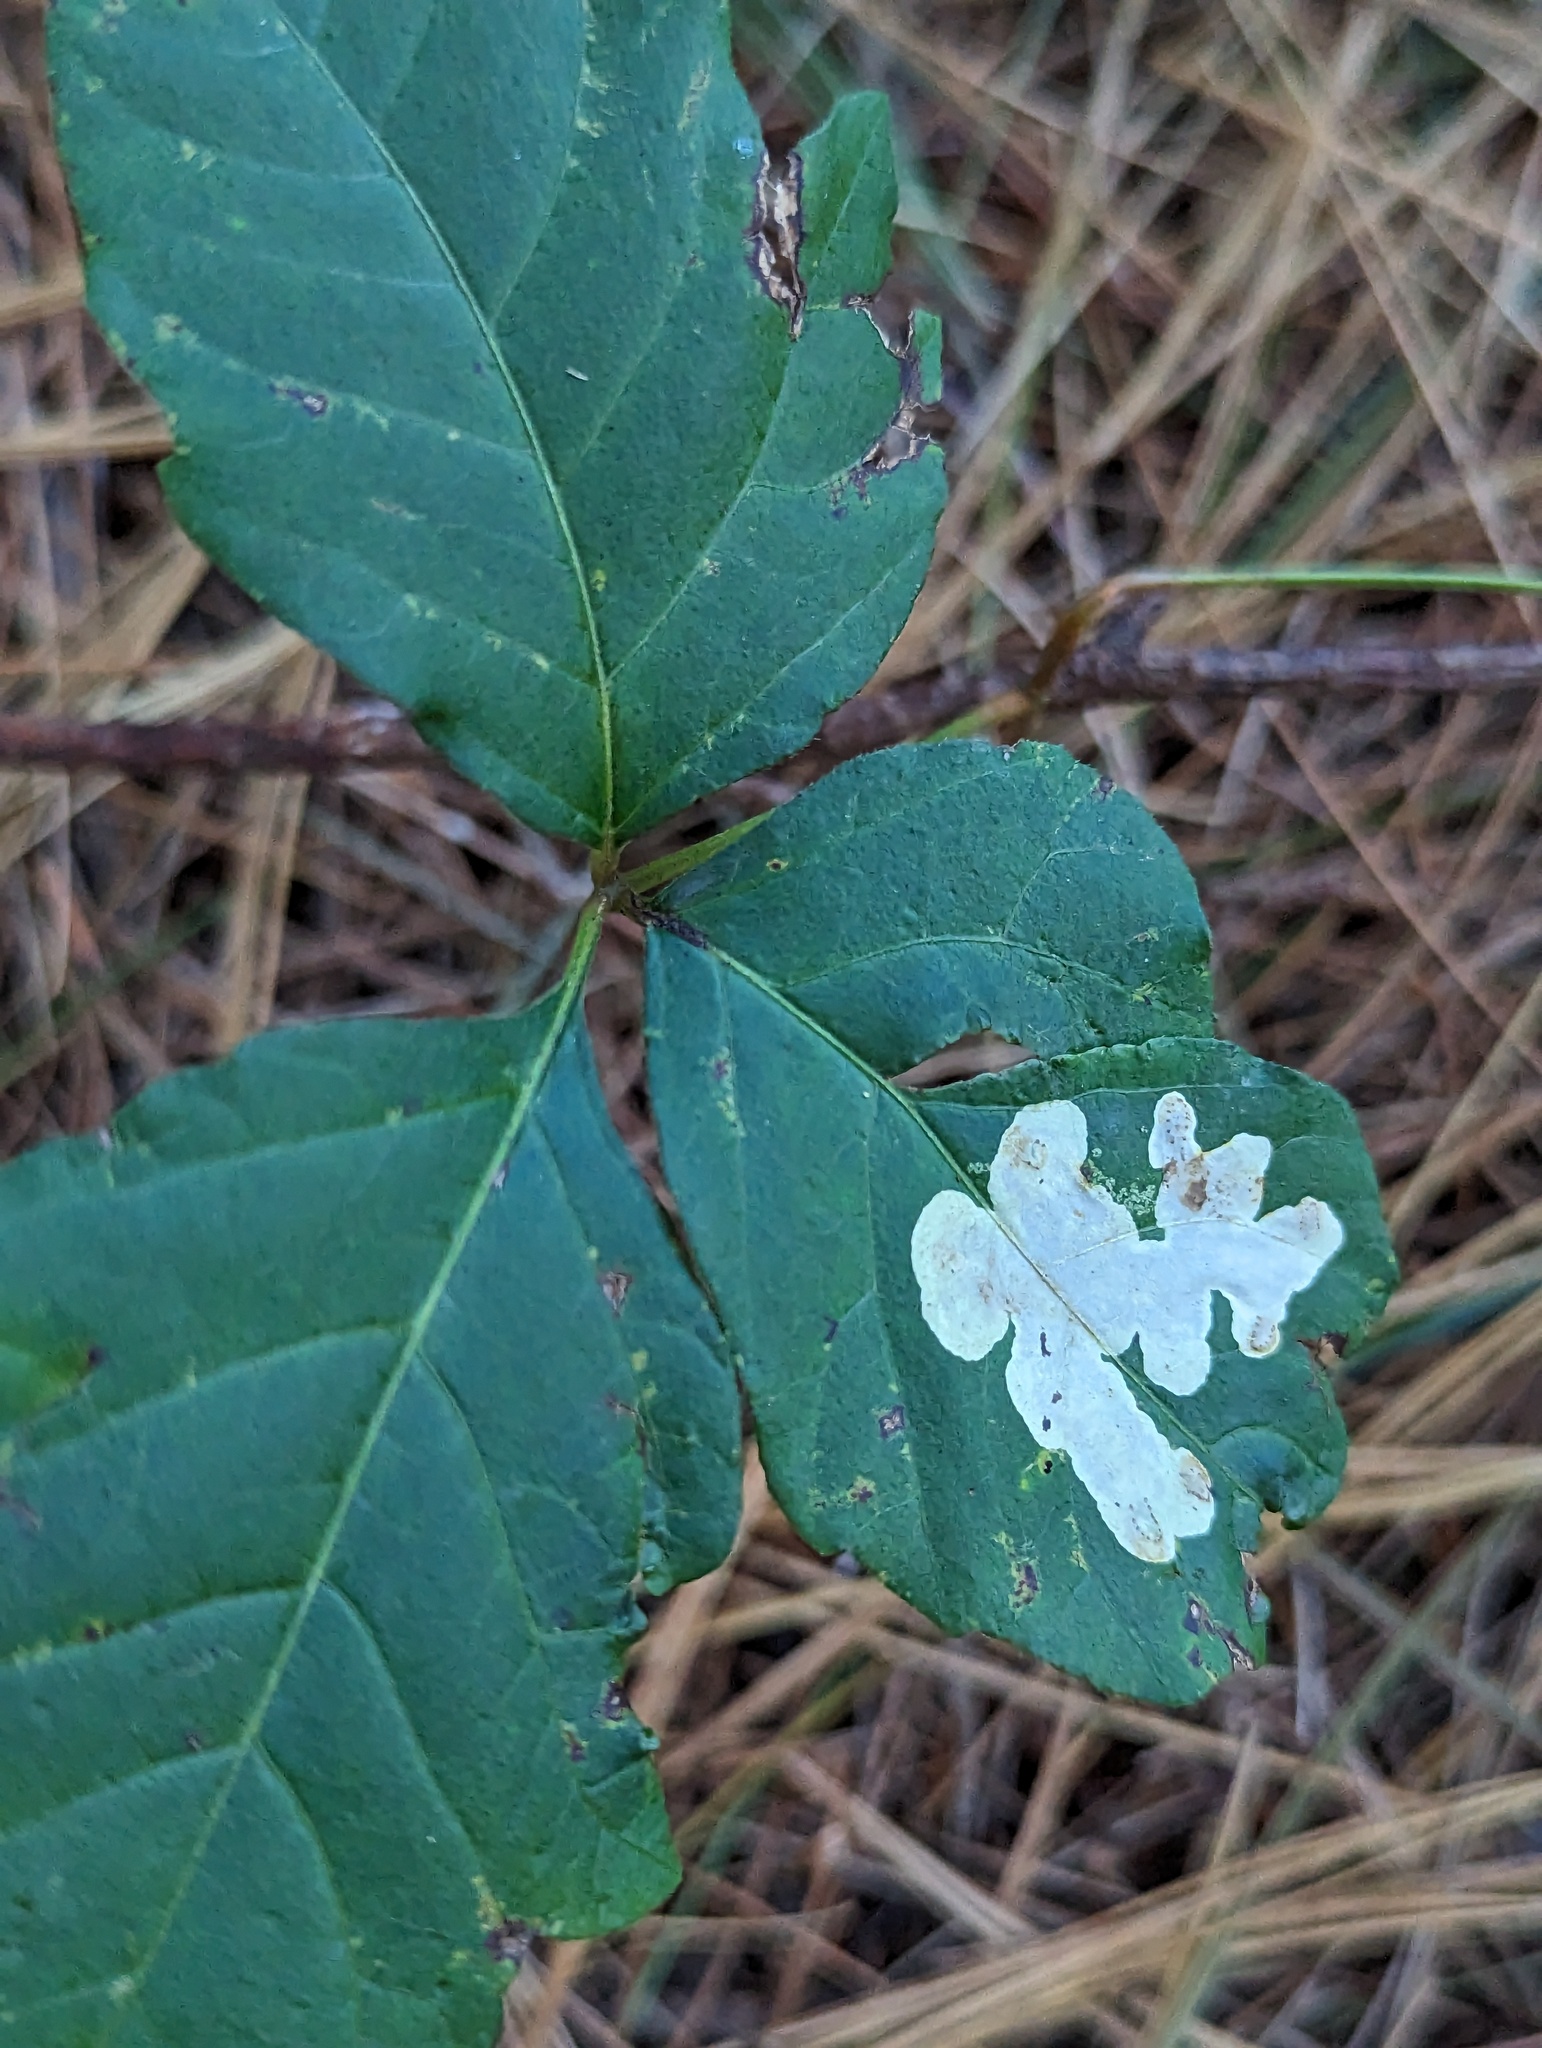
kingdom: Animalia
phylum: Arthropoda
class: Insecta
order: Lepidoptera
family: Gracillariidae
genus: Cameraria
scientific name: Cameraria guttifinitella
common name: Poison ivy leaf-miner moth
